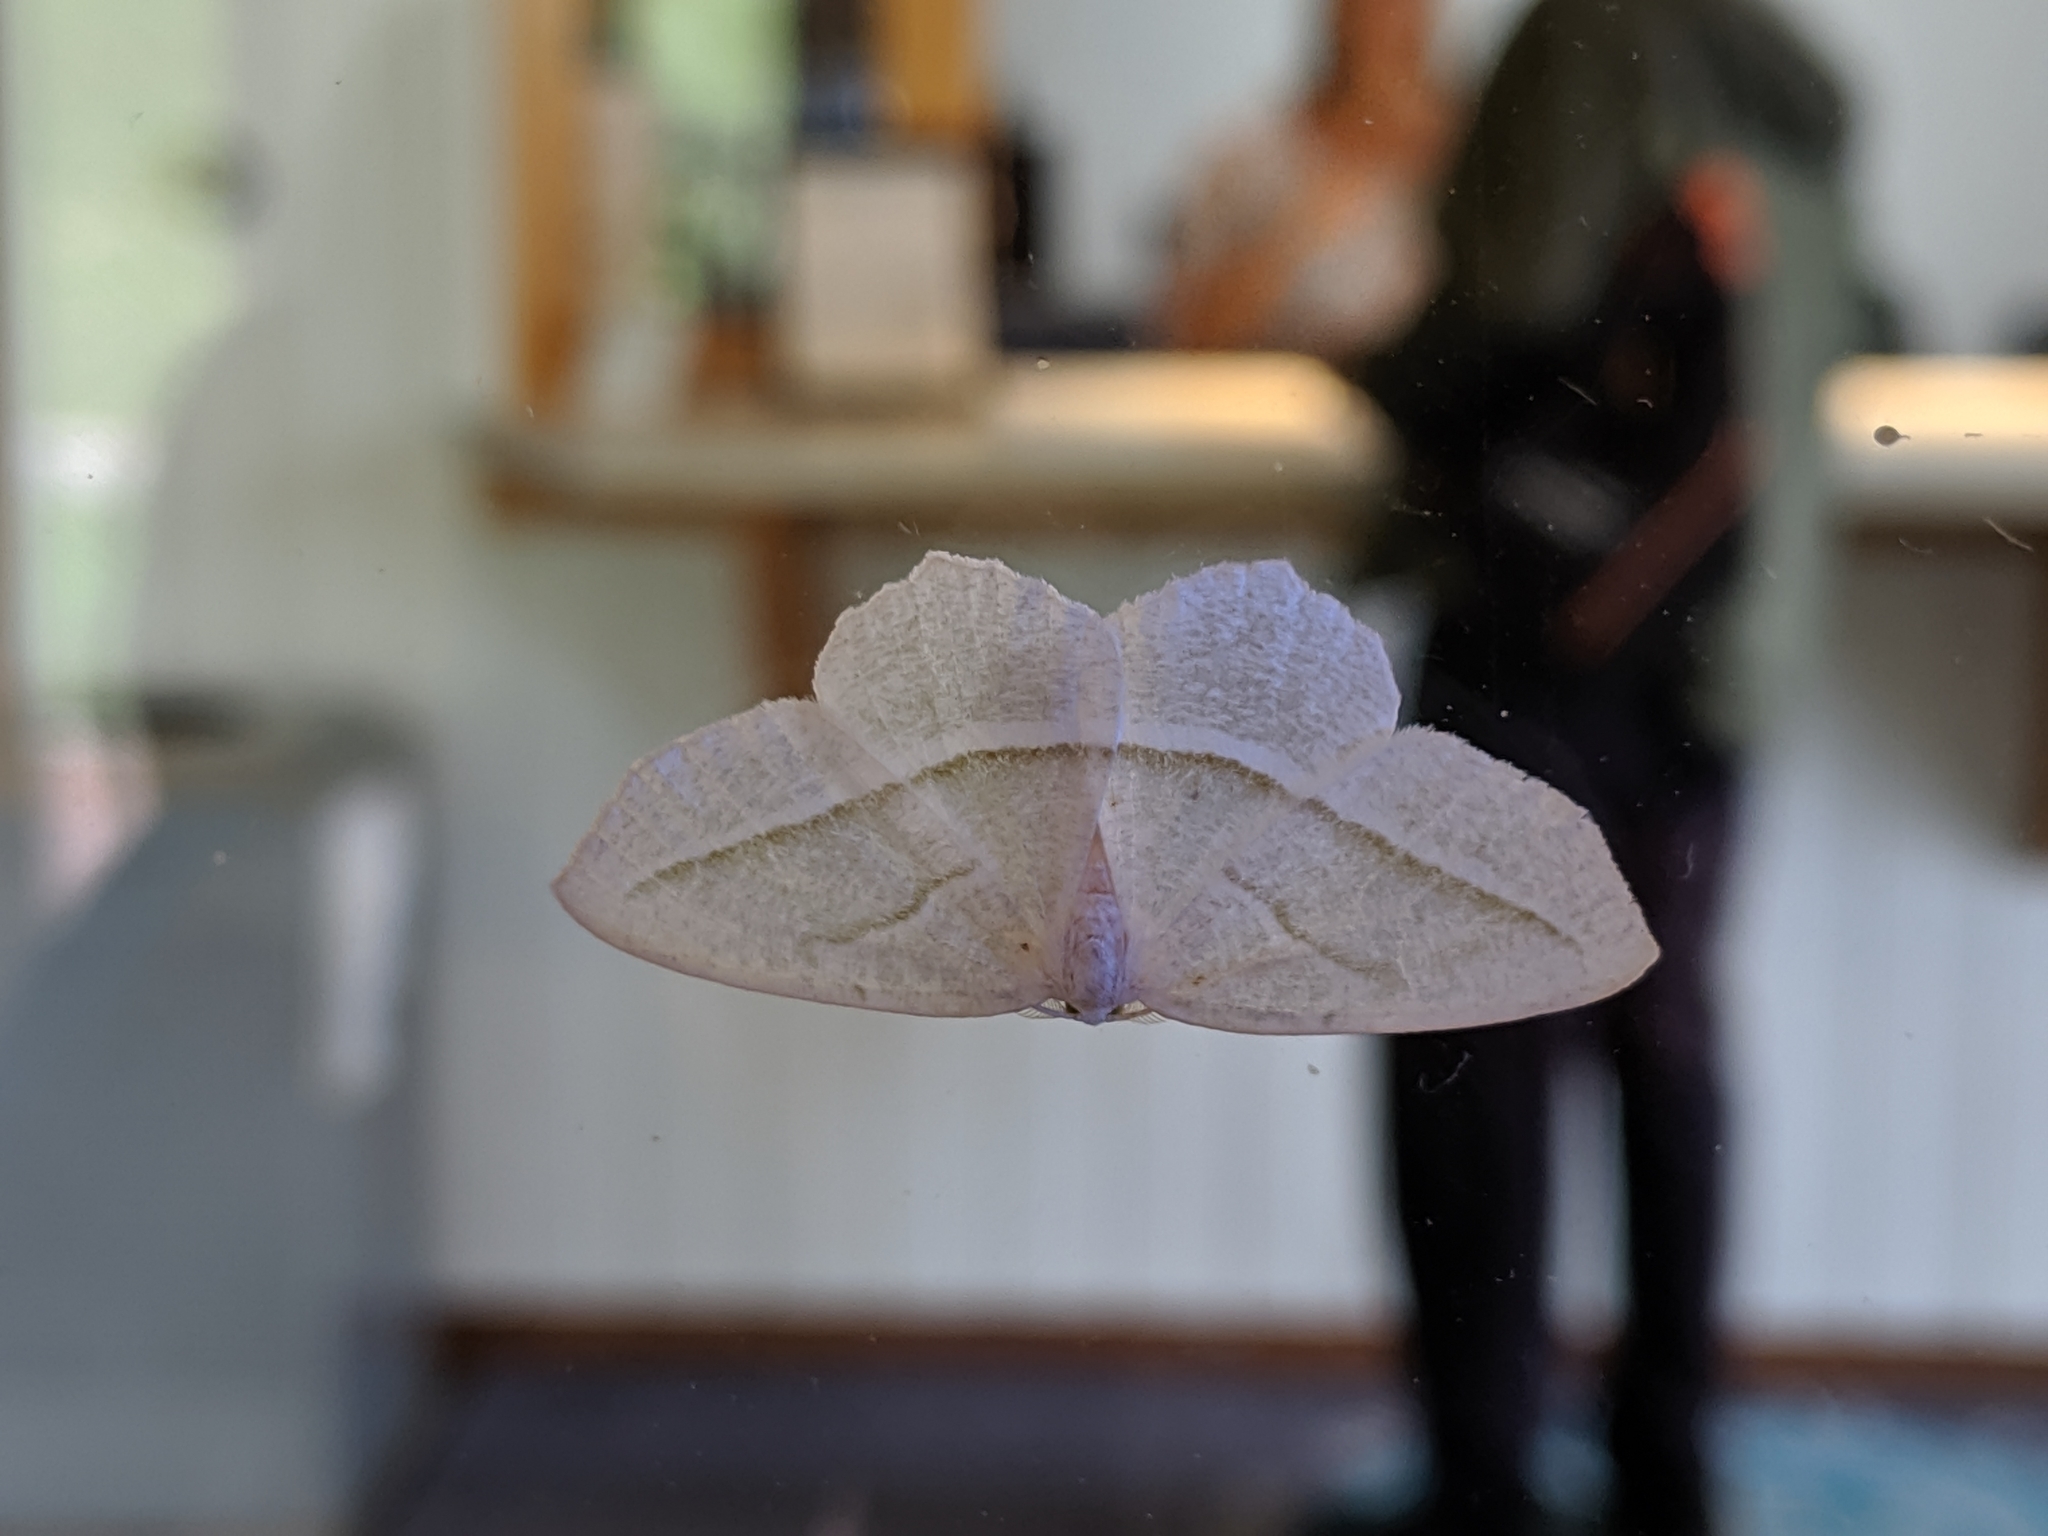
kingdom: Animalia
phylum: Arthropoda
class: Insecta
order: Lepidoptera
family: Geometridae
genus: Campaea
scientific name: Campaea perlata
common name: Fringed looper
